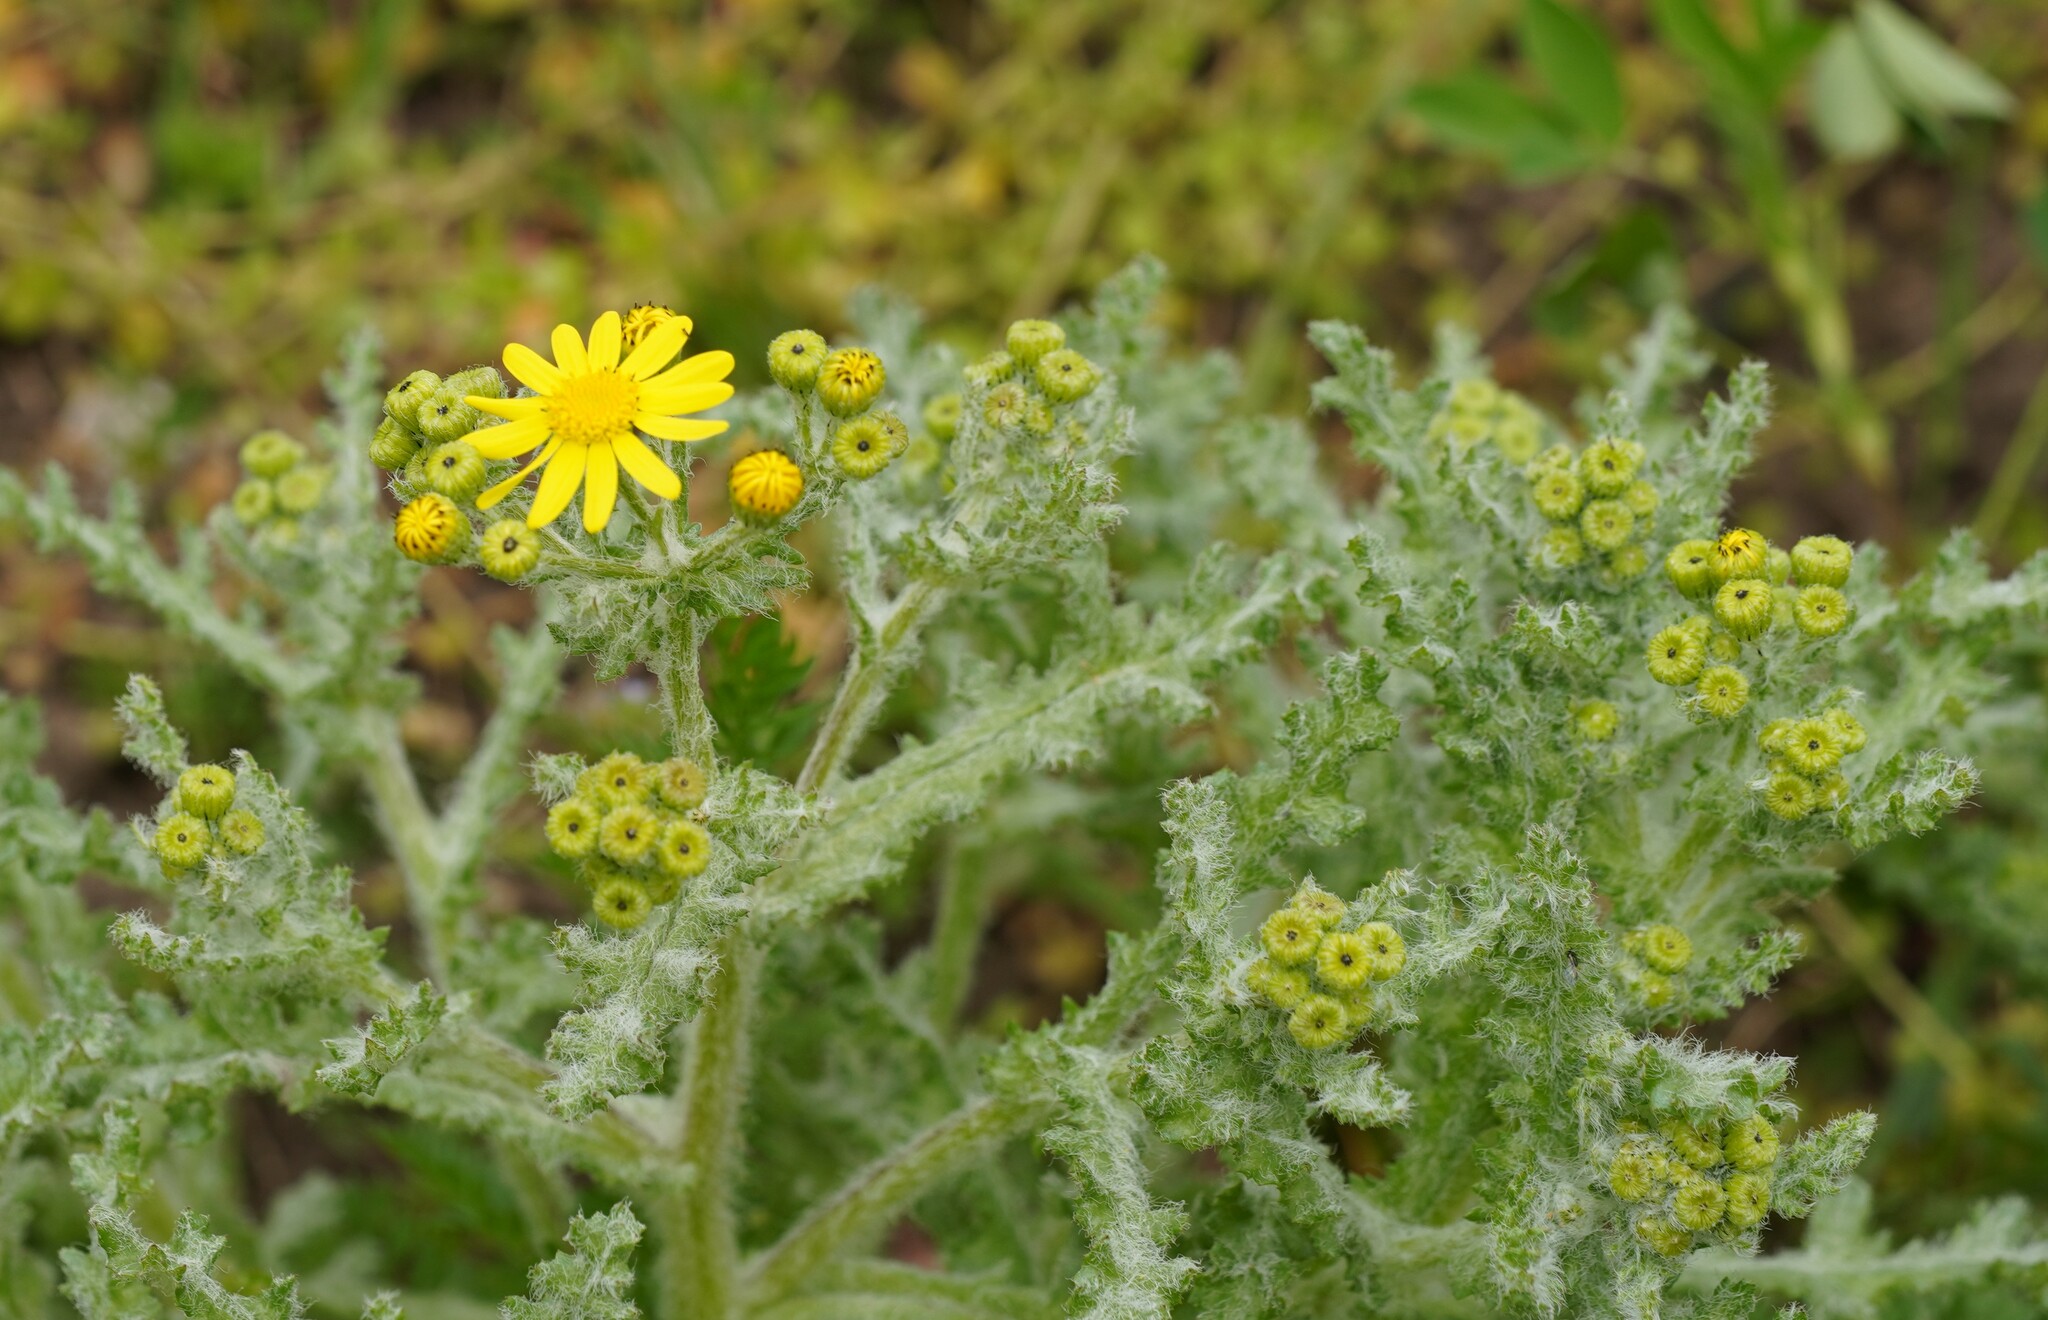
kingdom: Plantae
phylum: Tracheophyta
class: Magnoliopsida
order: Asterales
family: Asteraceae
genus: Senecio
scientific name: Senecio vernalis
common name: Eastern groundsel
